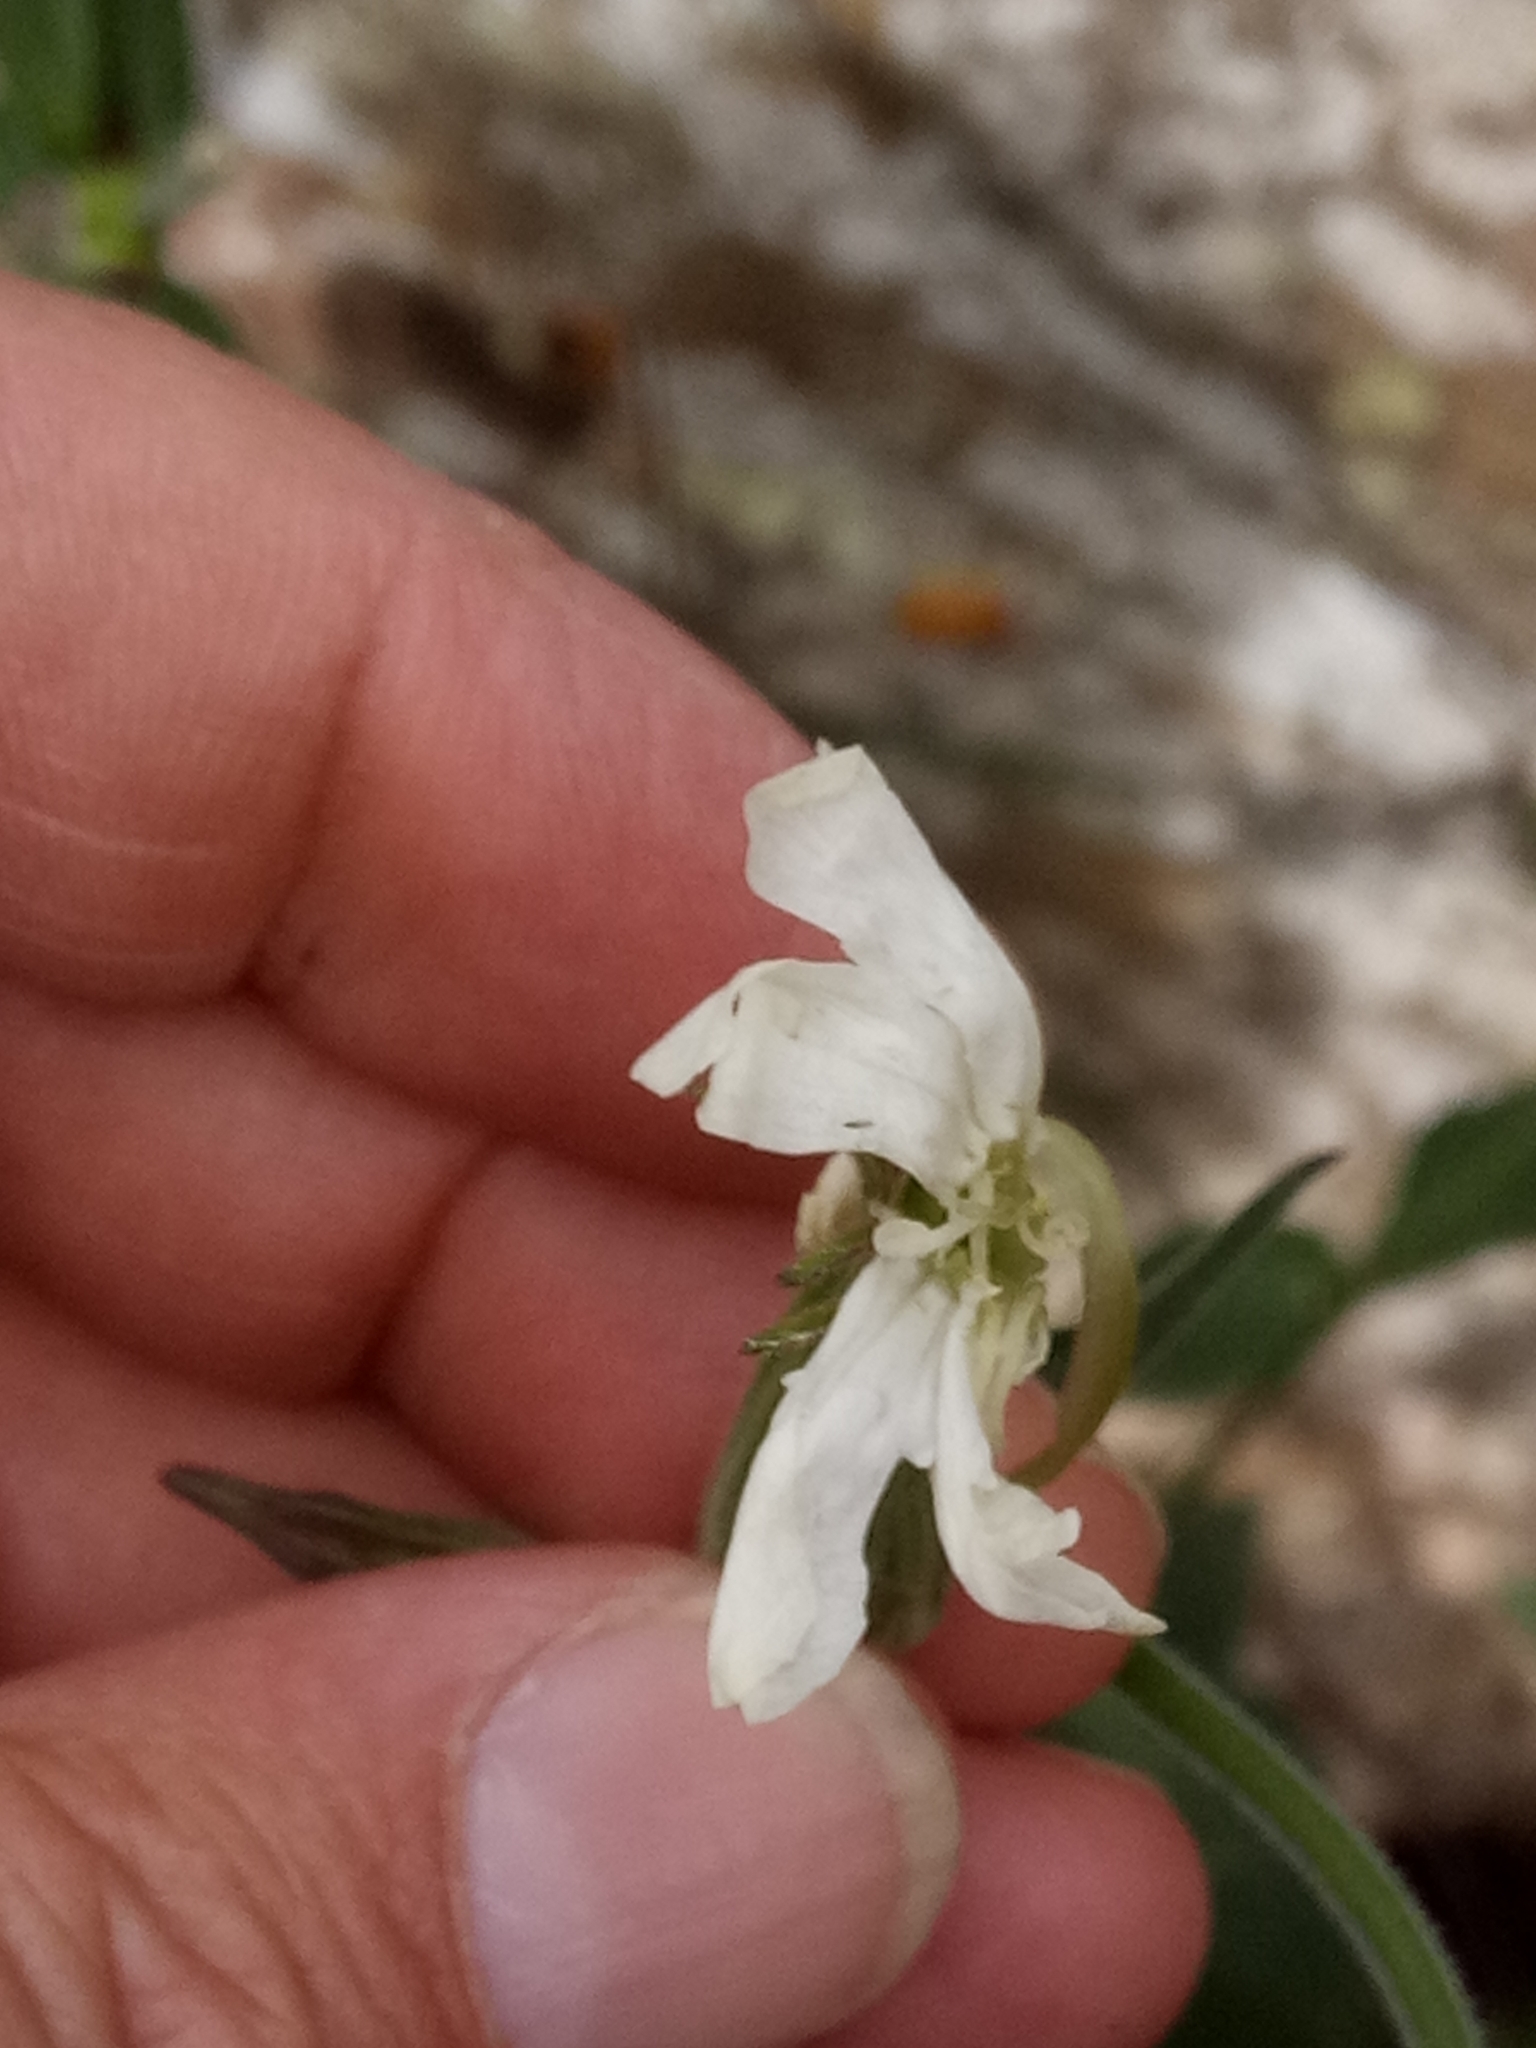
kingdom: Plantae
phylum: Tracheophyta
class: Magnoliopsida
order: Caryophyllales
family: Caryophyllaceae
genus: Silene
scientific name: Silene latifolia
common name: White campion
